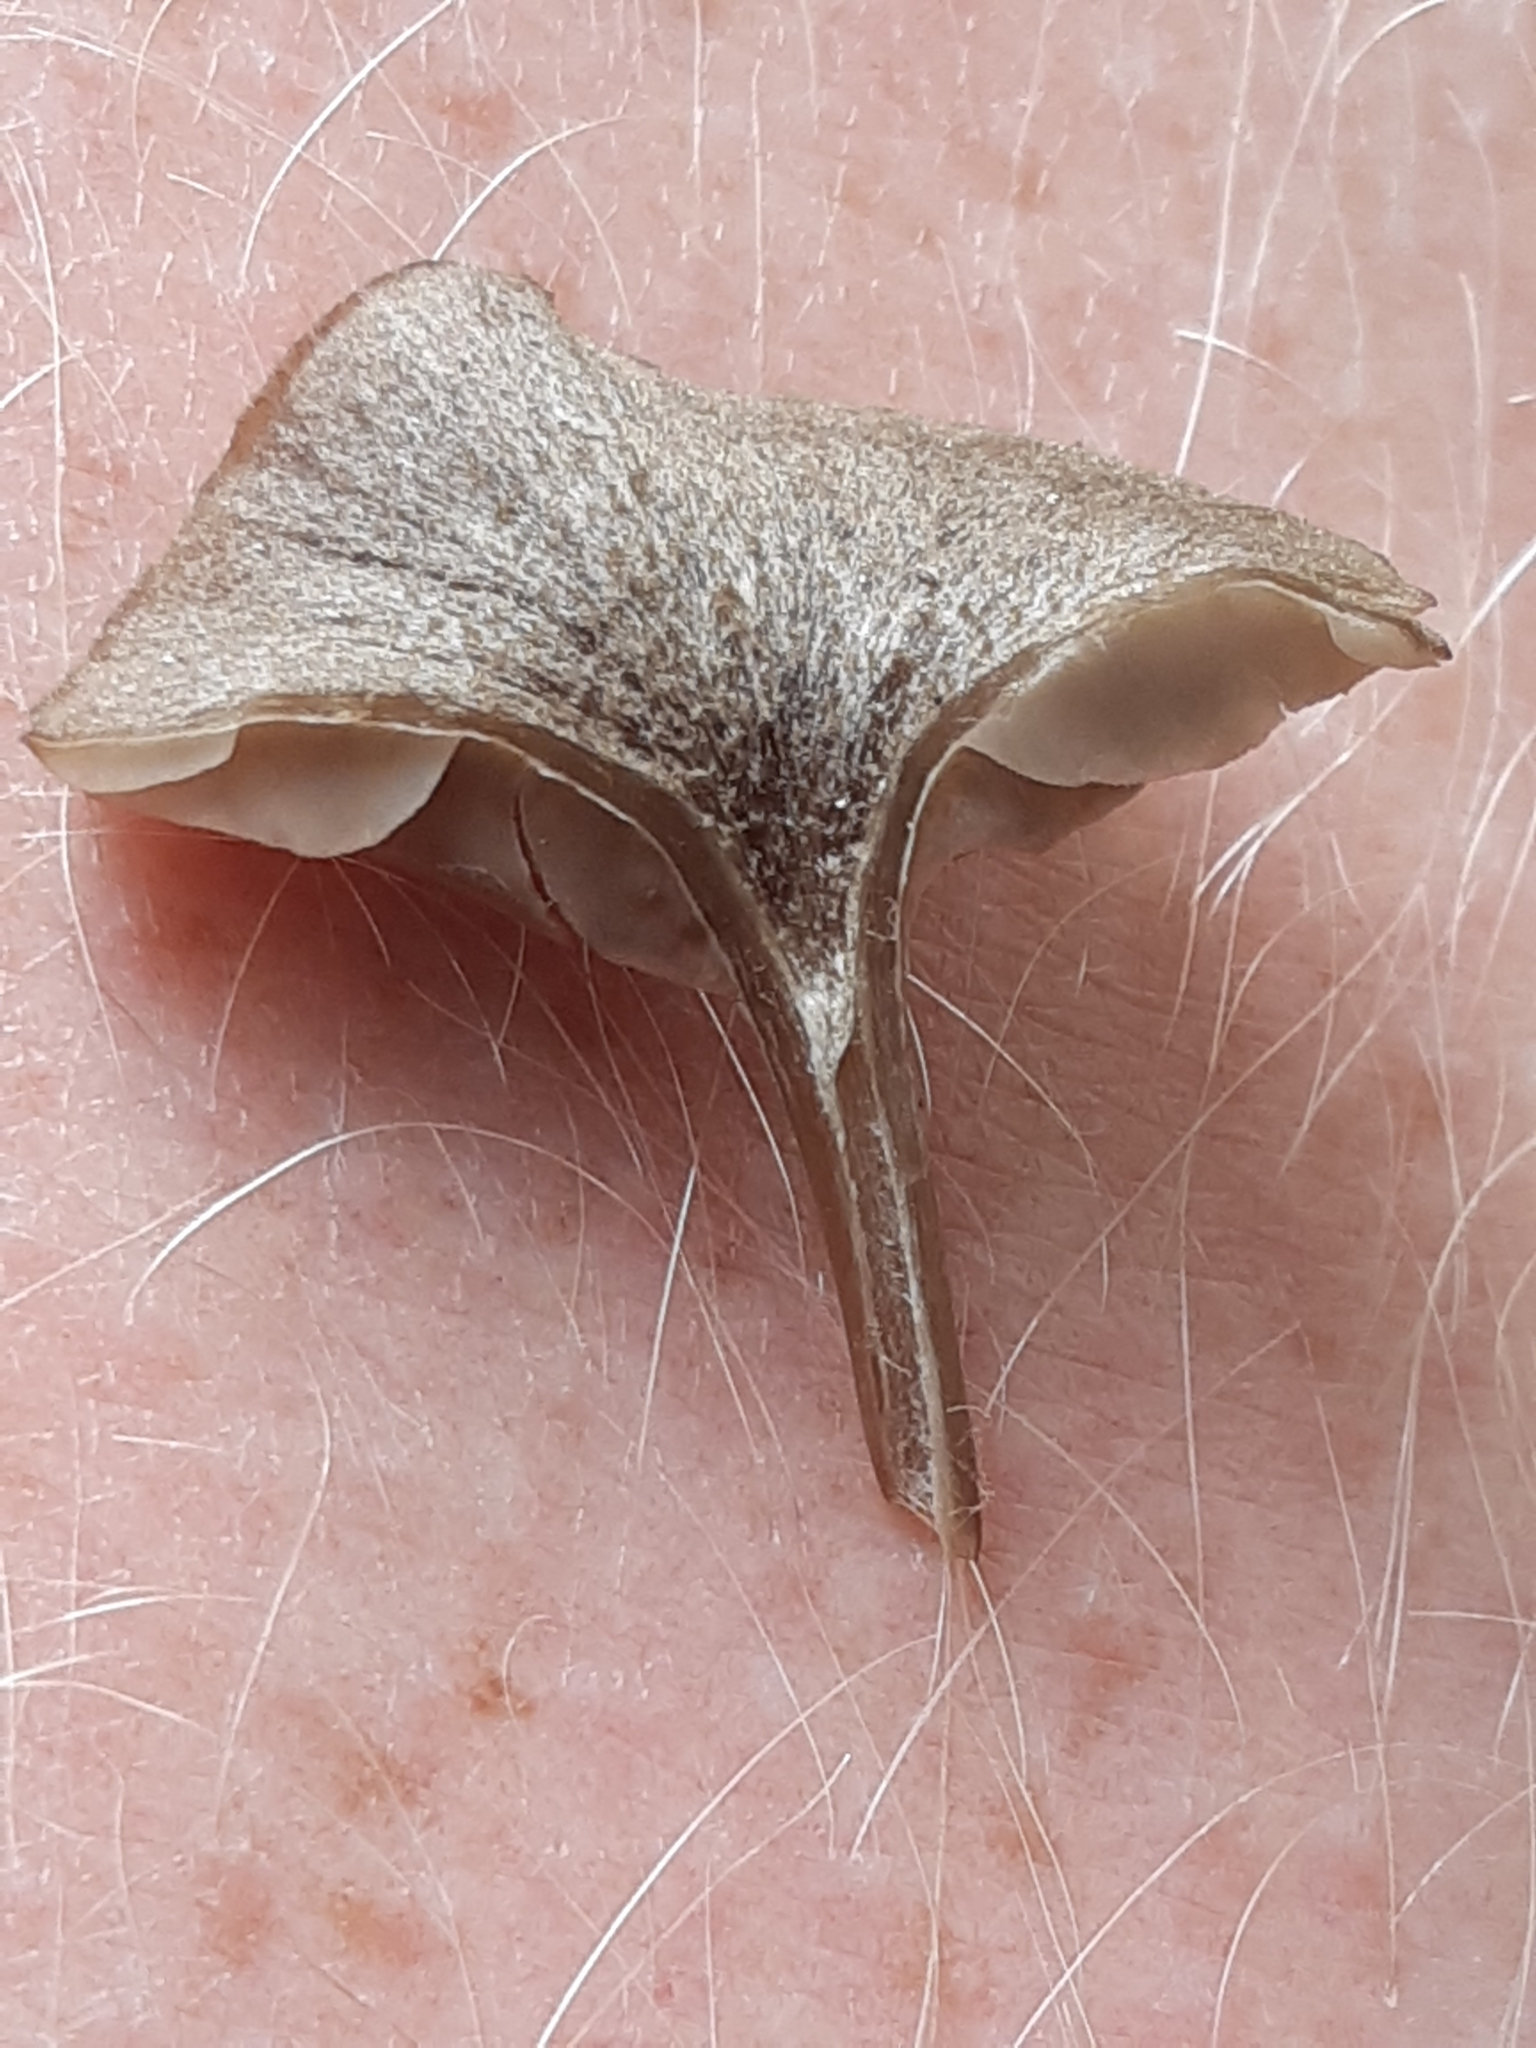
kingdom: Fungi
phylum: Basidiomycota
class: Agaricomycetes
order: Agaricales
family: Entolomataceae
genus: Entoloma
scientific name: Entoloma rusticoides
